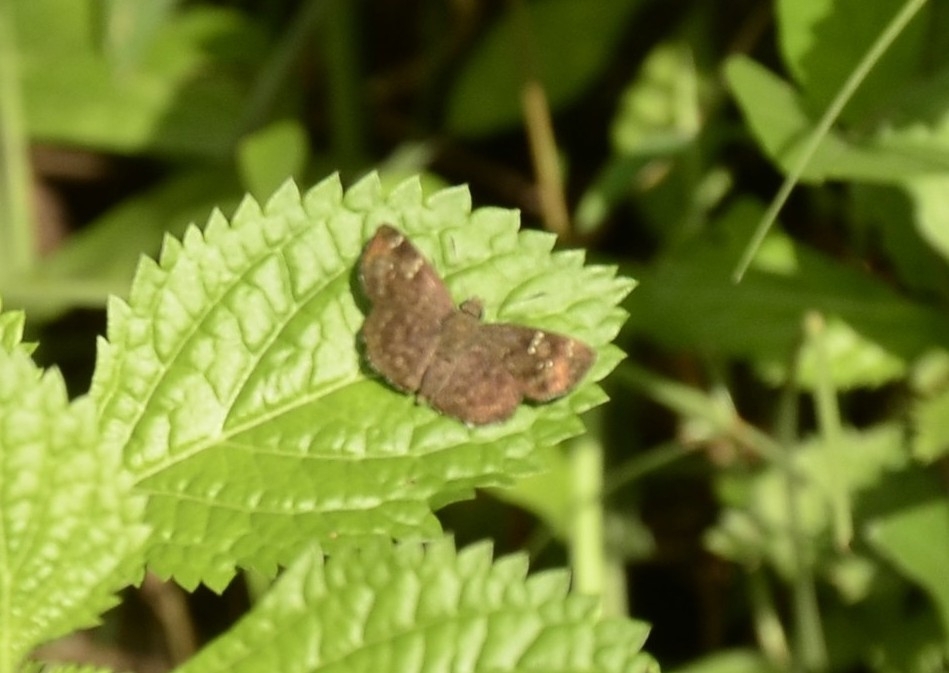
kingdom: Animalia
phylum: Arthropoda
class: Insecta
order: Lepidoptera
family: Hesperiidae
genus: Sarangesa
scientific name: Sarangesa dasahara
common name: Common small flat
